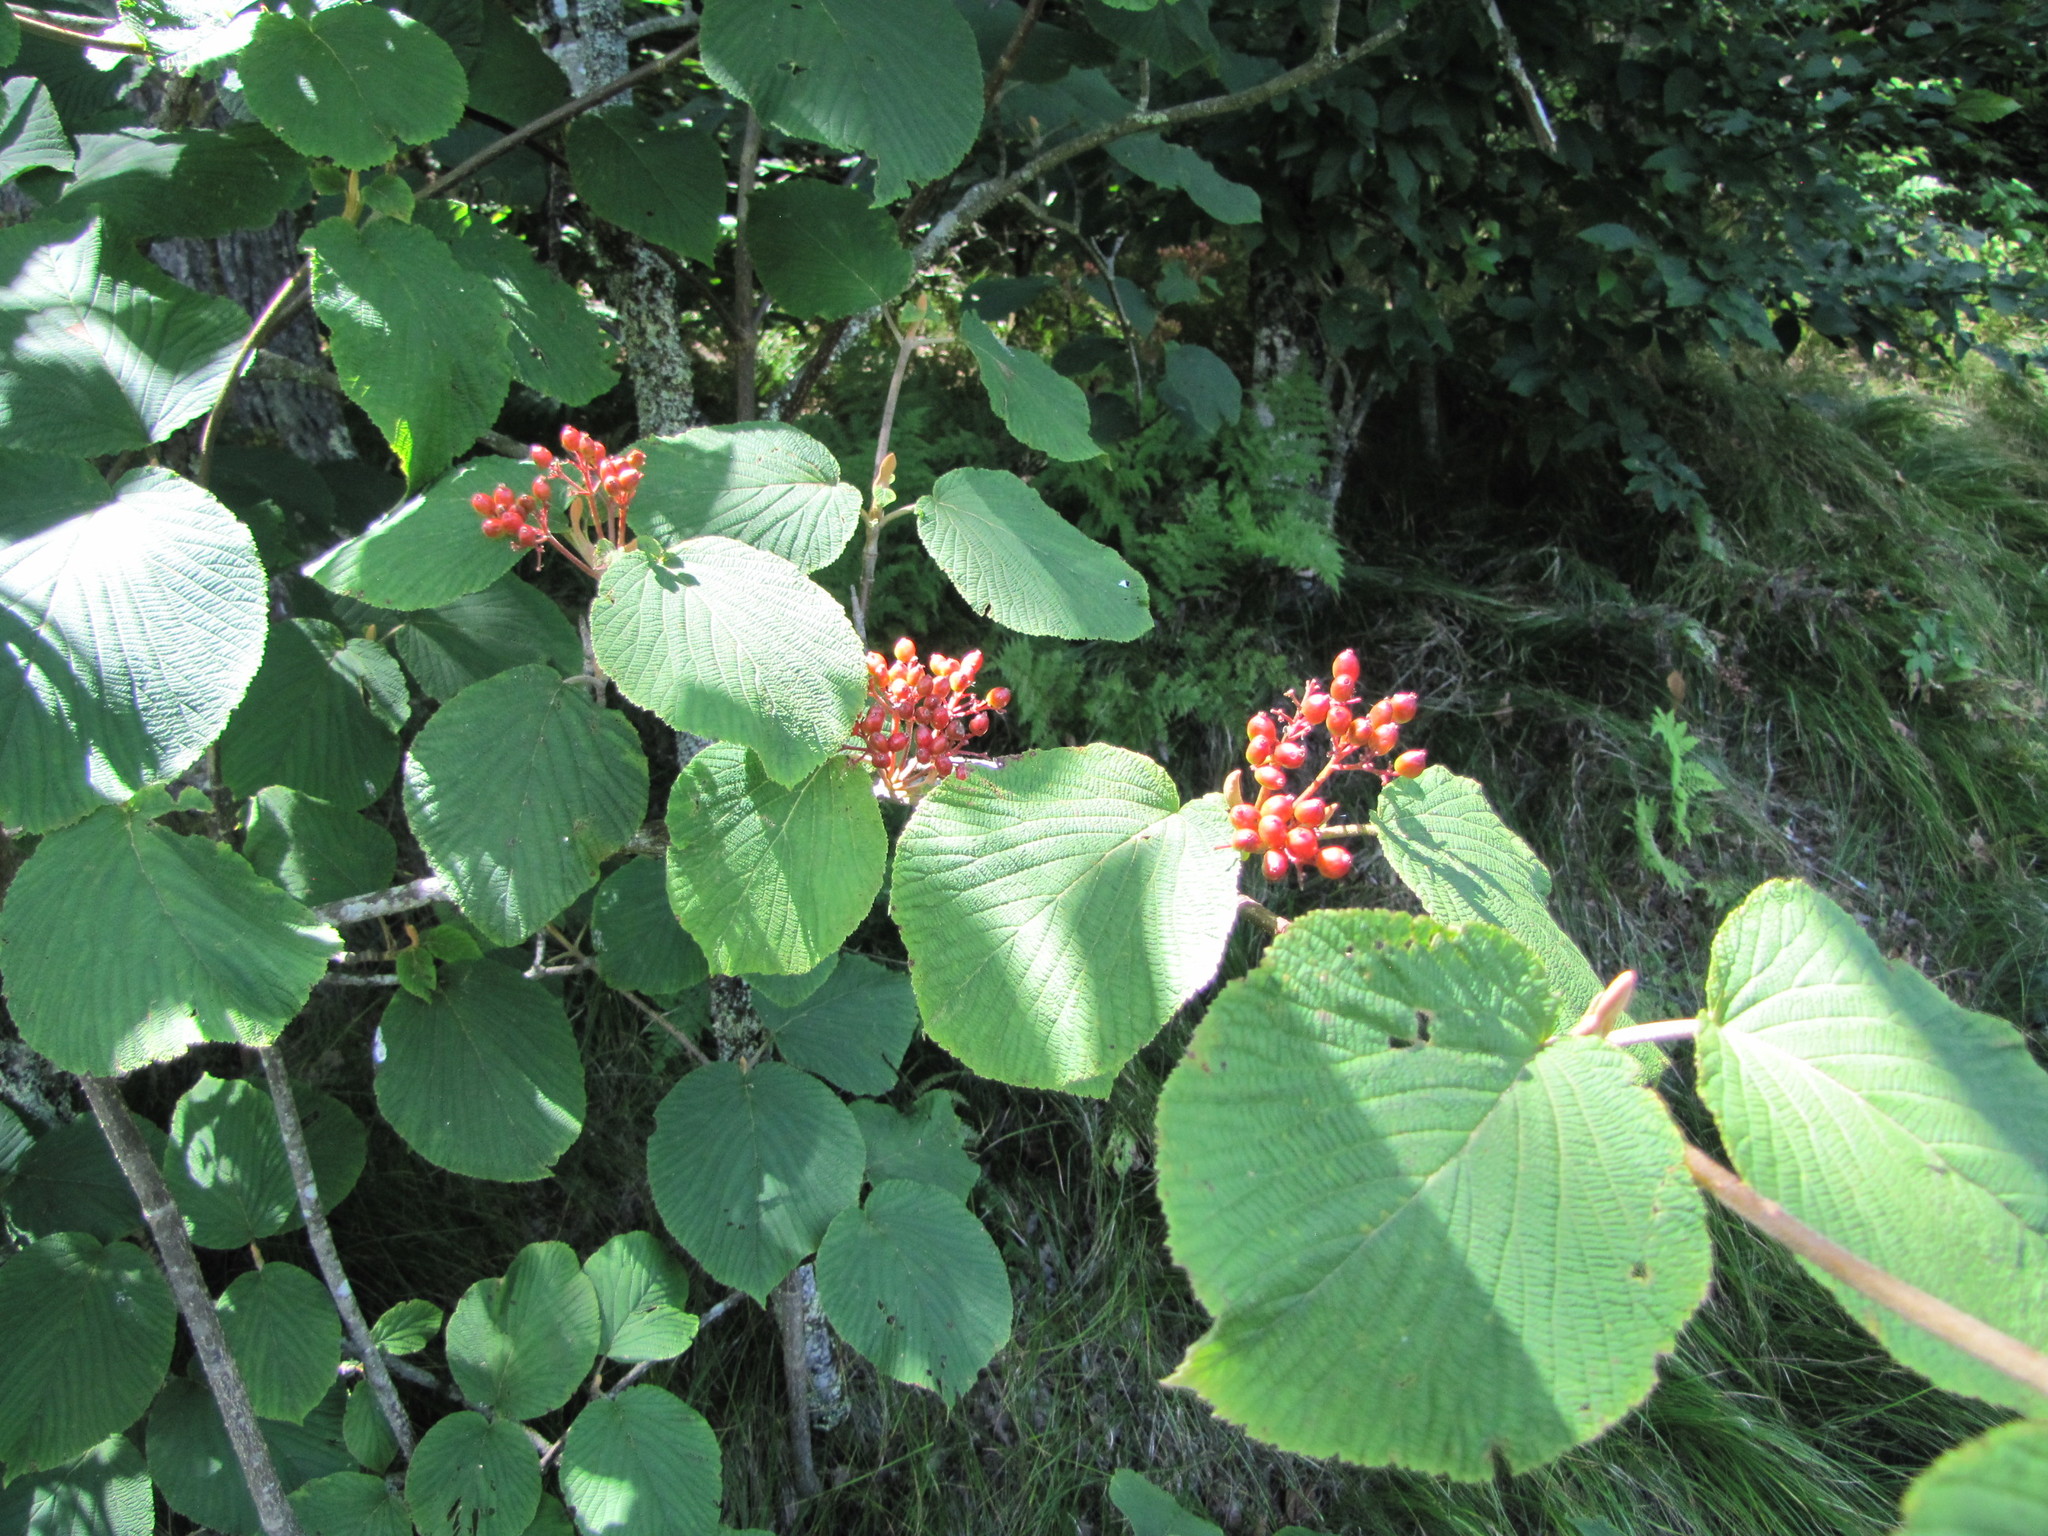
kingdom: Plantae
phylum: Tracheophyta
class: Magnoliopsida
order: Dipsacales
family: Viburnaceae
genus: Viburnum
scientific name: Viburnum lantanoides
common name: Hobblebush
